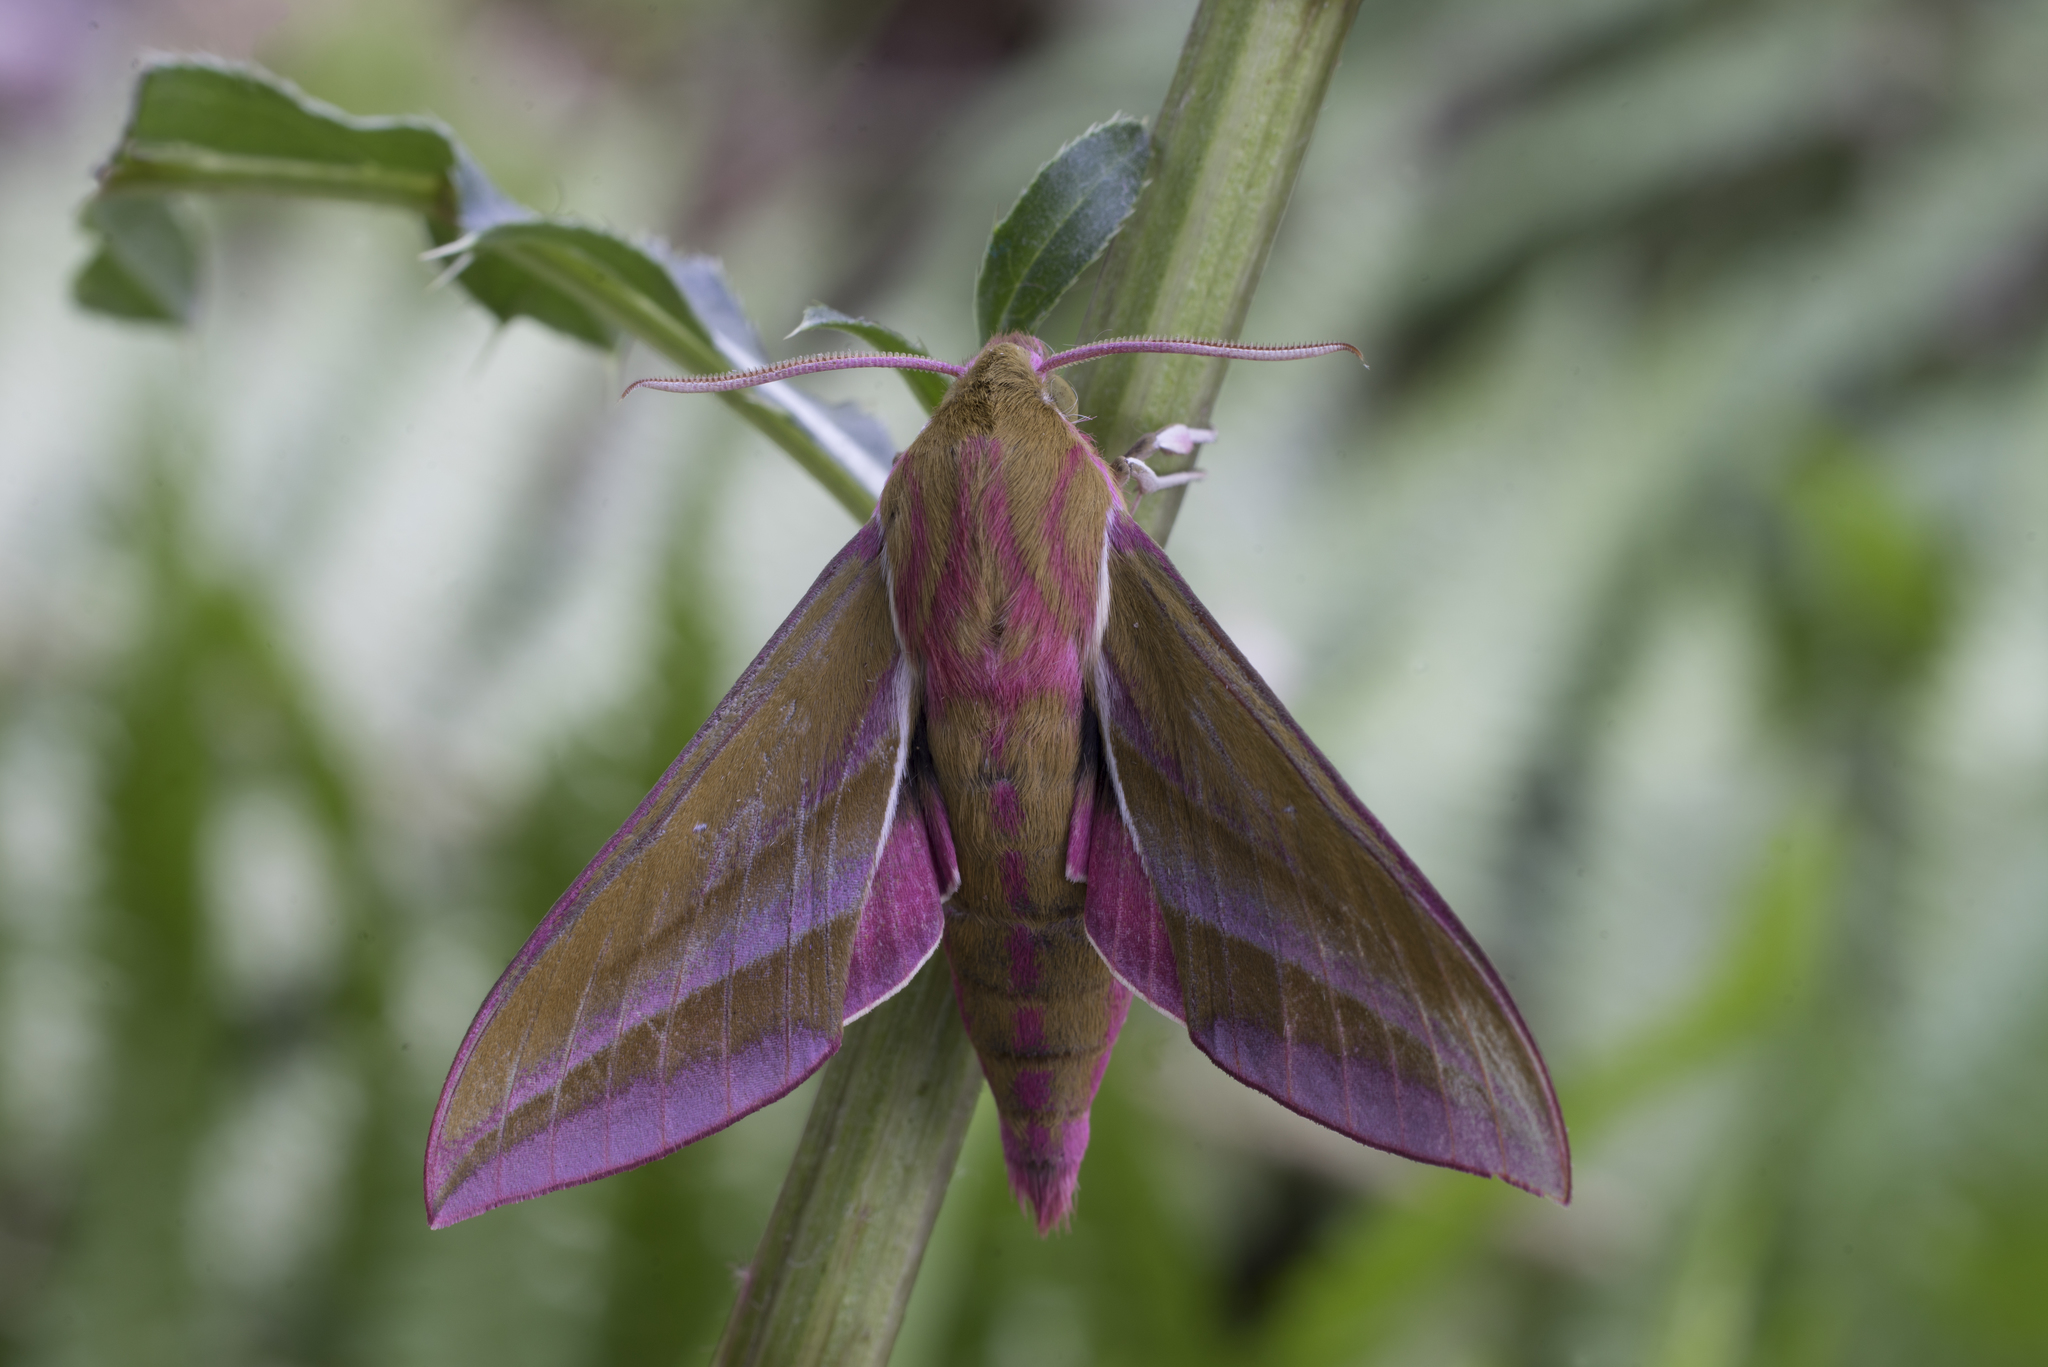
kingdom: Animalia
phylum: Arthropoda
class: Insecta
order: Lepidoptera
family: Sphingidae
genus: Deilephila
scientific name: Deilephila elpenor
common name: Elephant hawk-moth
